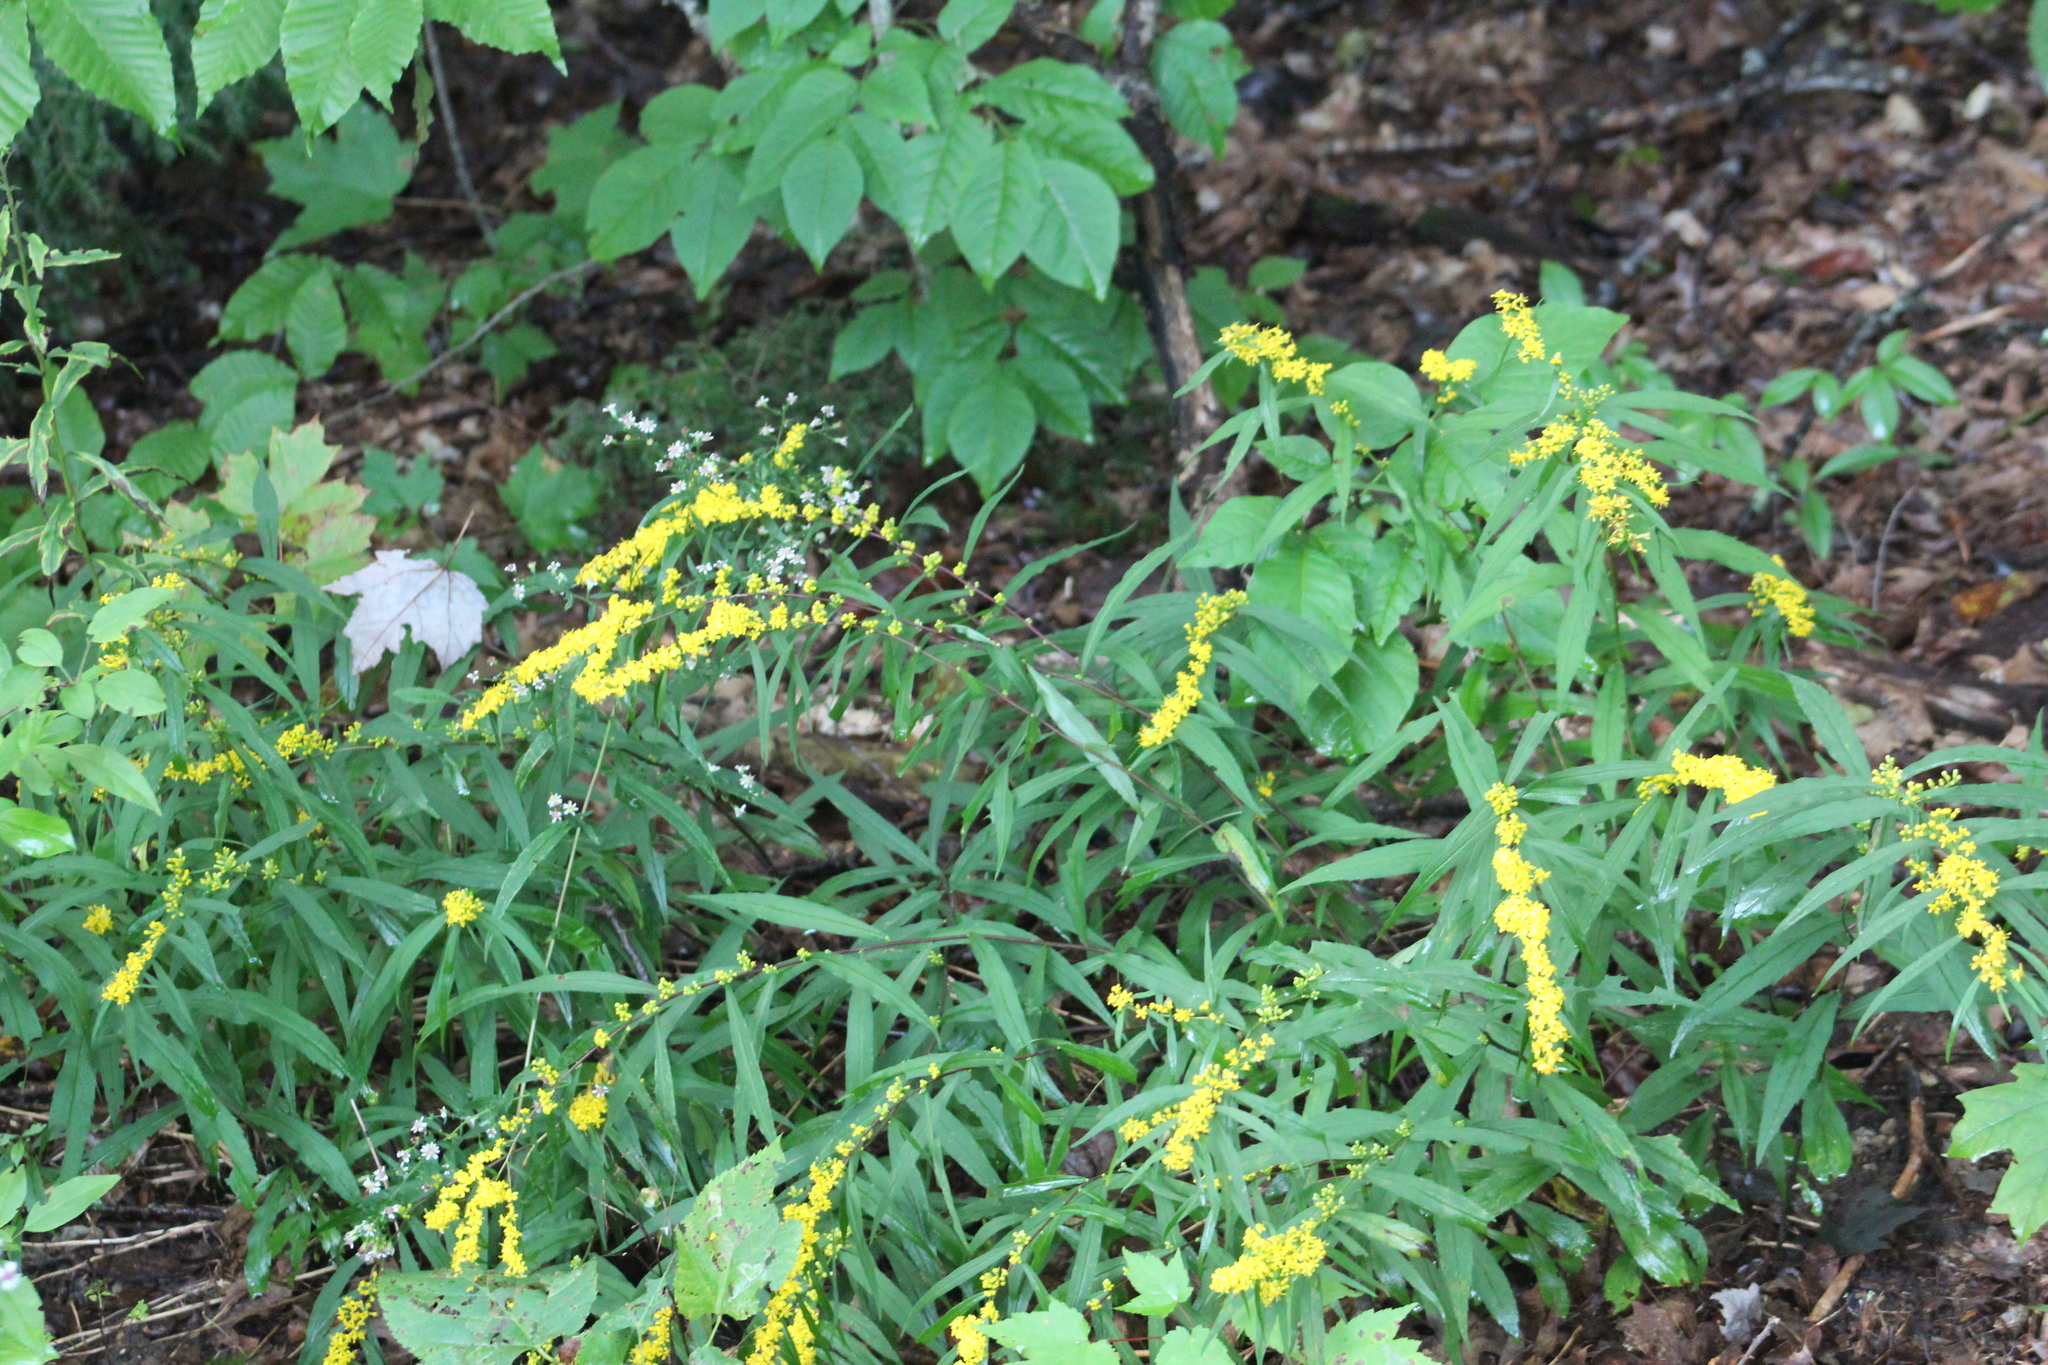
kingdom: Plantae
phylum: Tracheophyta
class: Magnoliopsida
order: Asterales
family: Asteraceae
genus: Solidago
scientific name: Solidago caesia
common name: Woodland goldenrod
